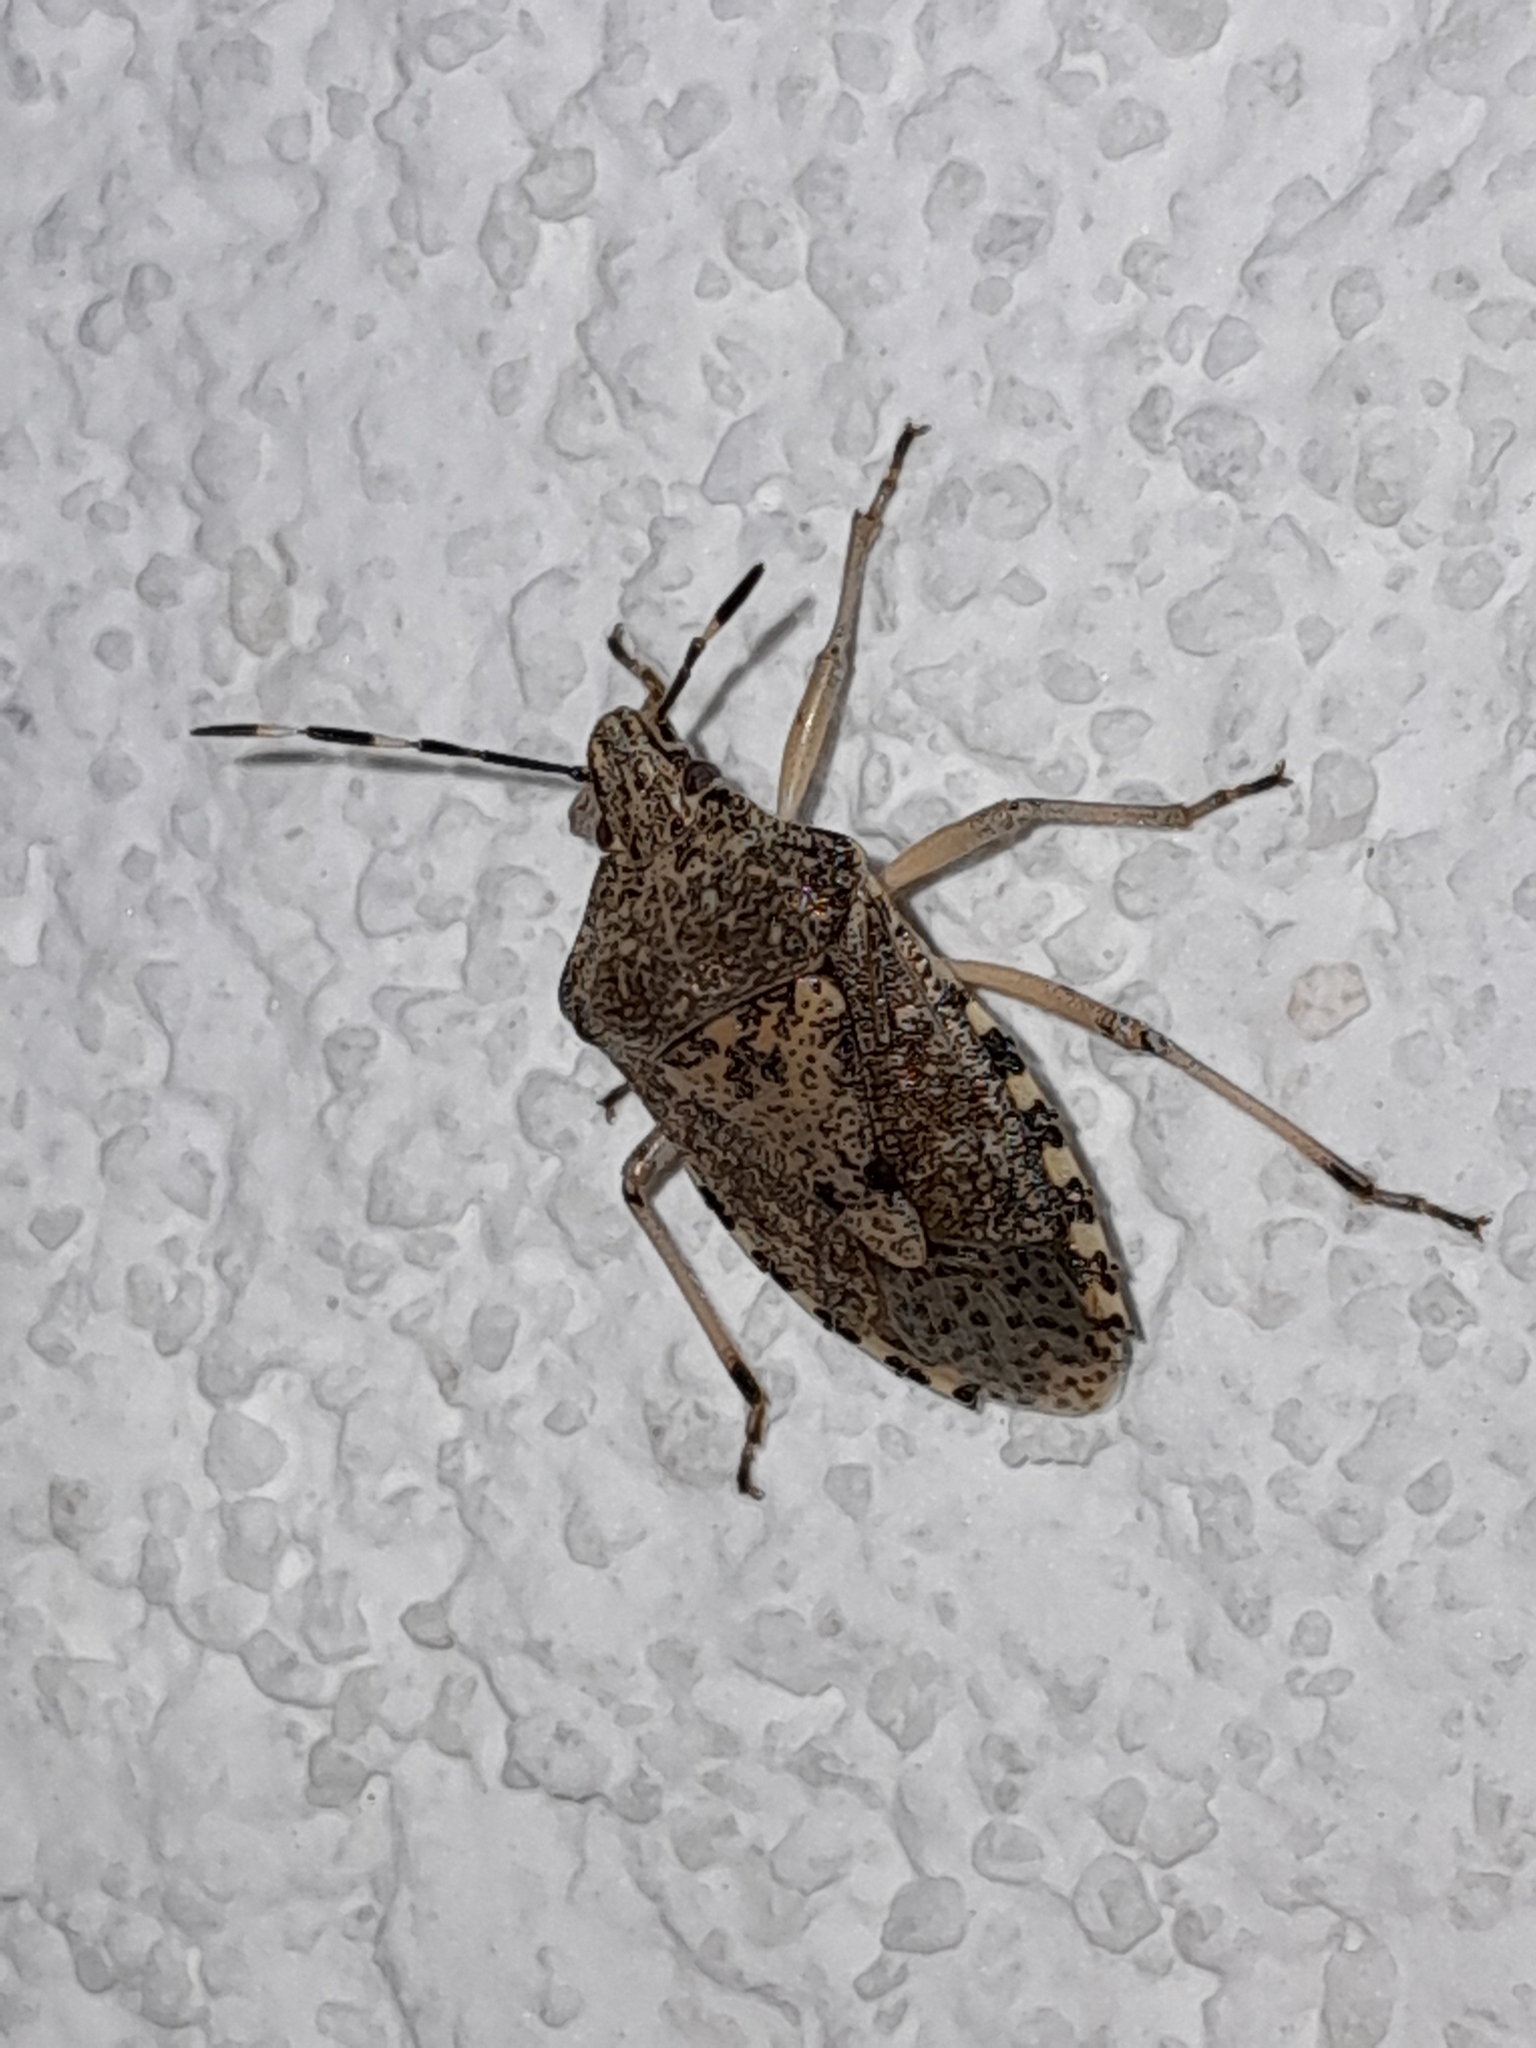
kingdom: Animalia
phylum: Arthropoda
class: Insecta
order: Hemiptera
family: Pentatomidae
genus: Rhaphigaster
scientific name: Rhaphigaster nebulosa
